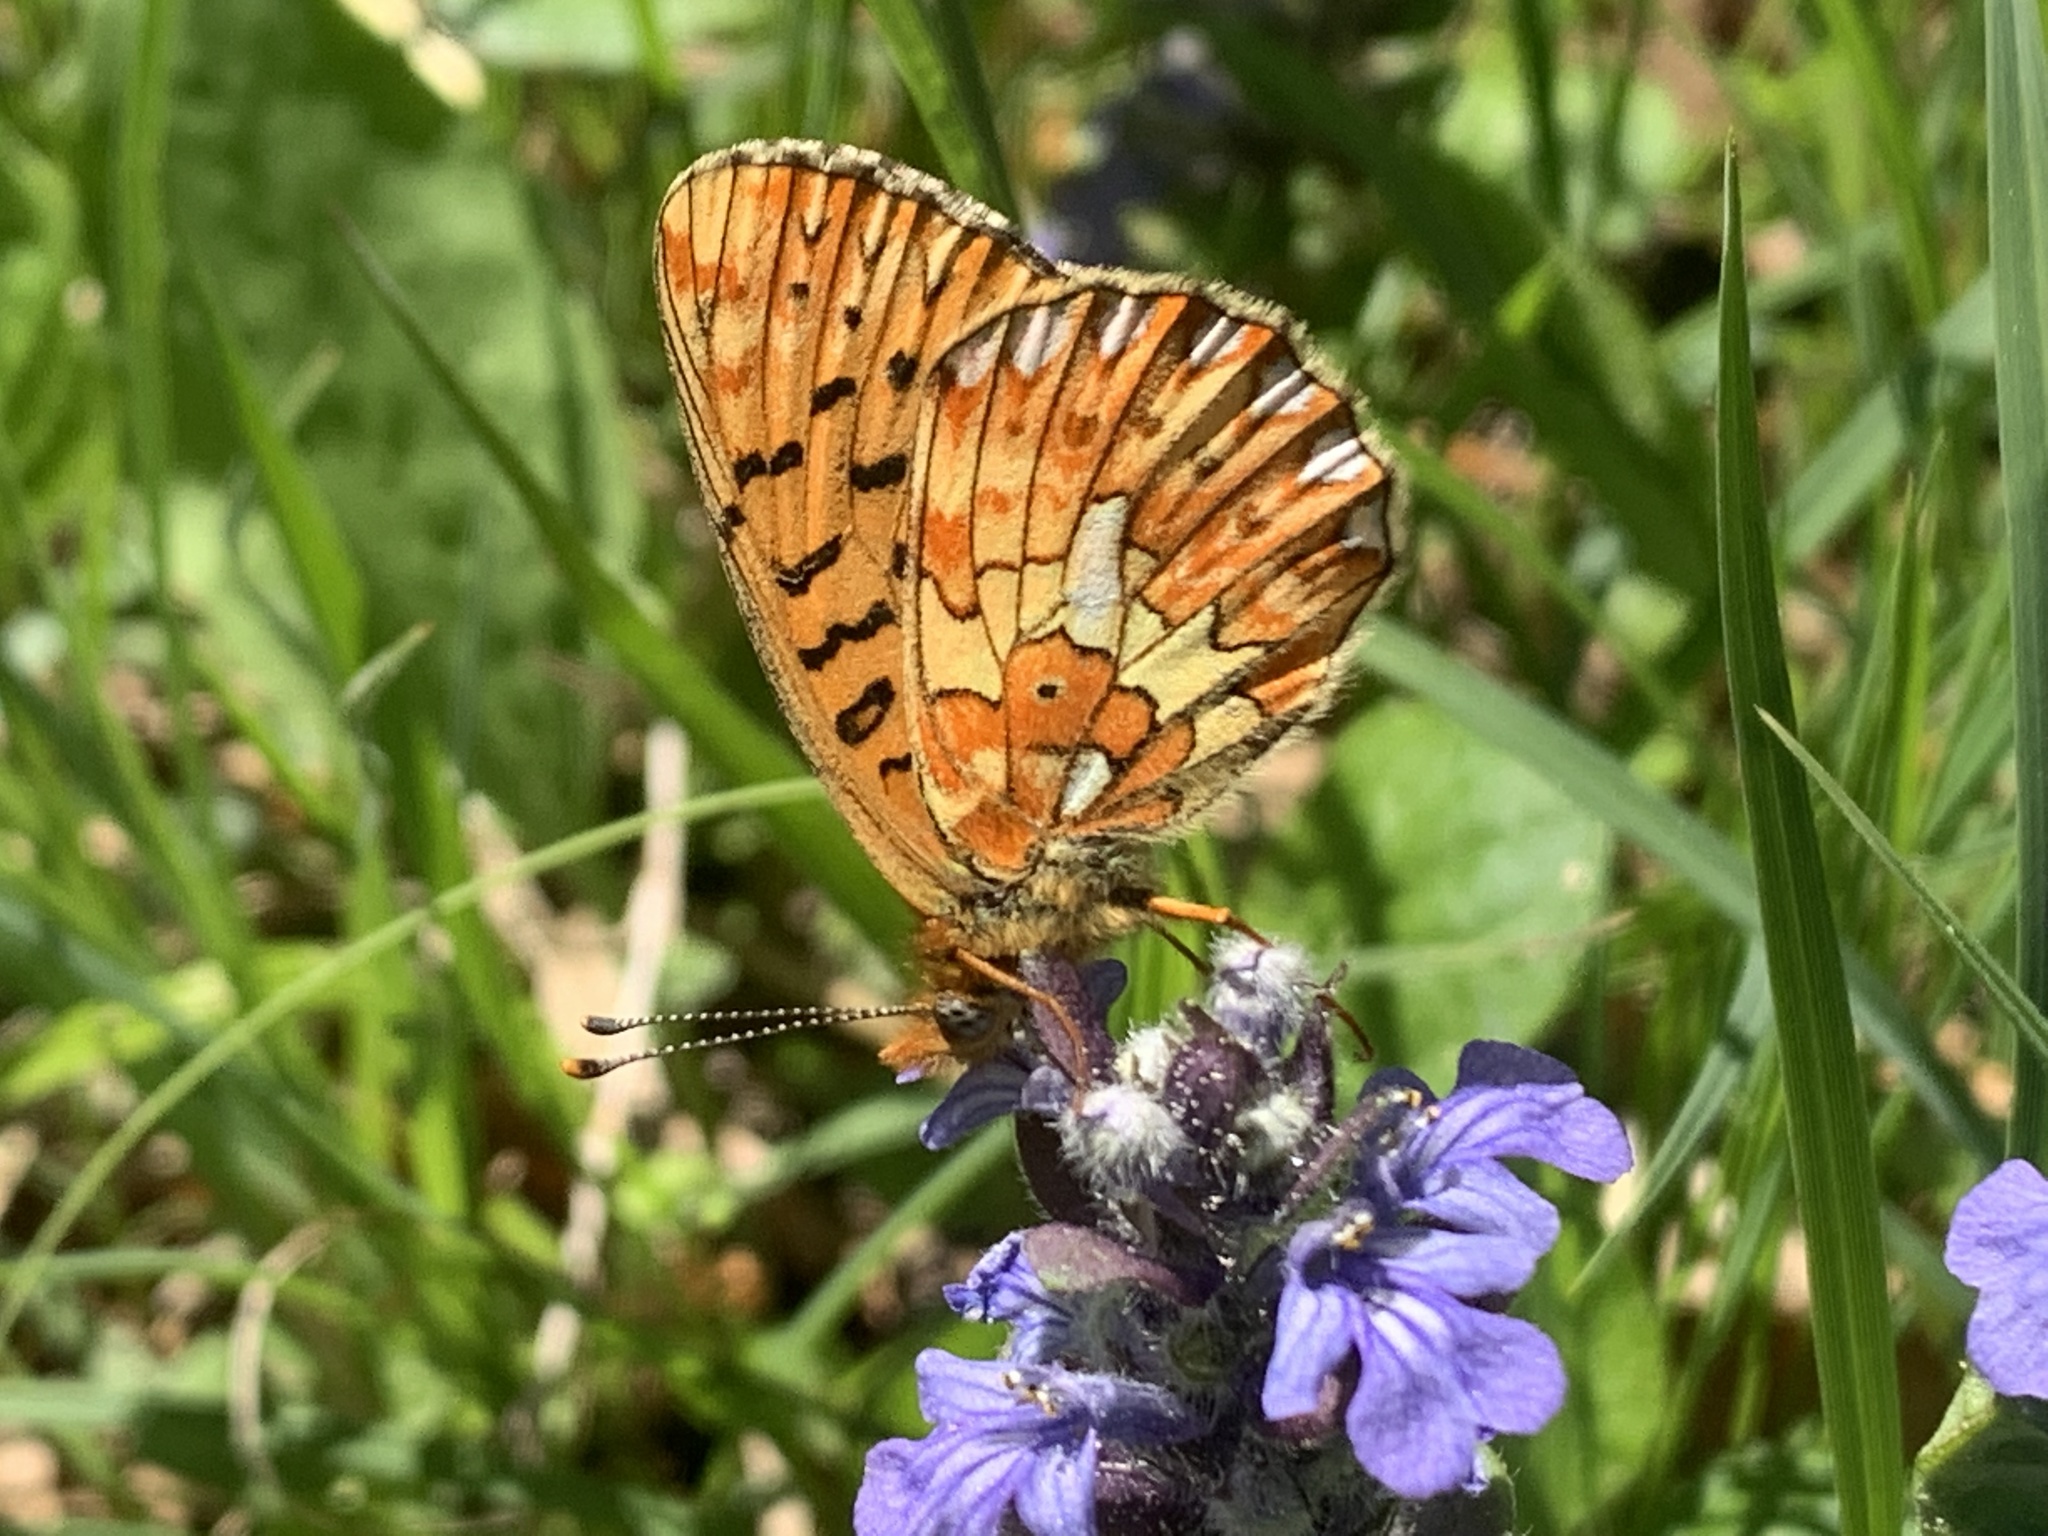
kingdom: Animalia
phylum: Arthropoda
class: Insecta
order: Lepidoptera
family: Nymphalidae
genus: Clossiana
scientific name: Clossiana euphrosyne
